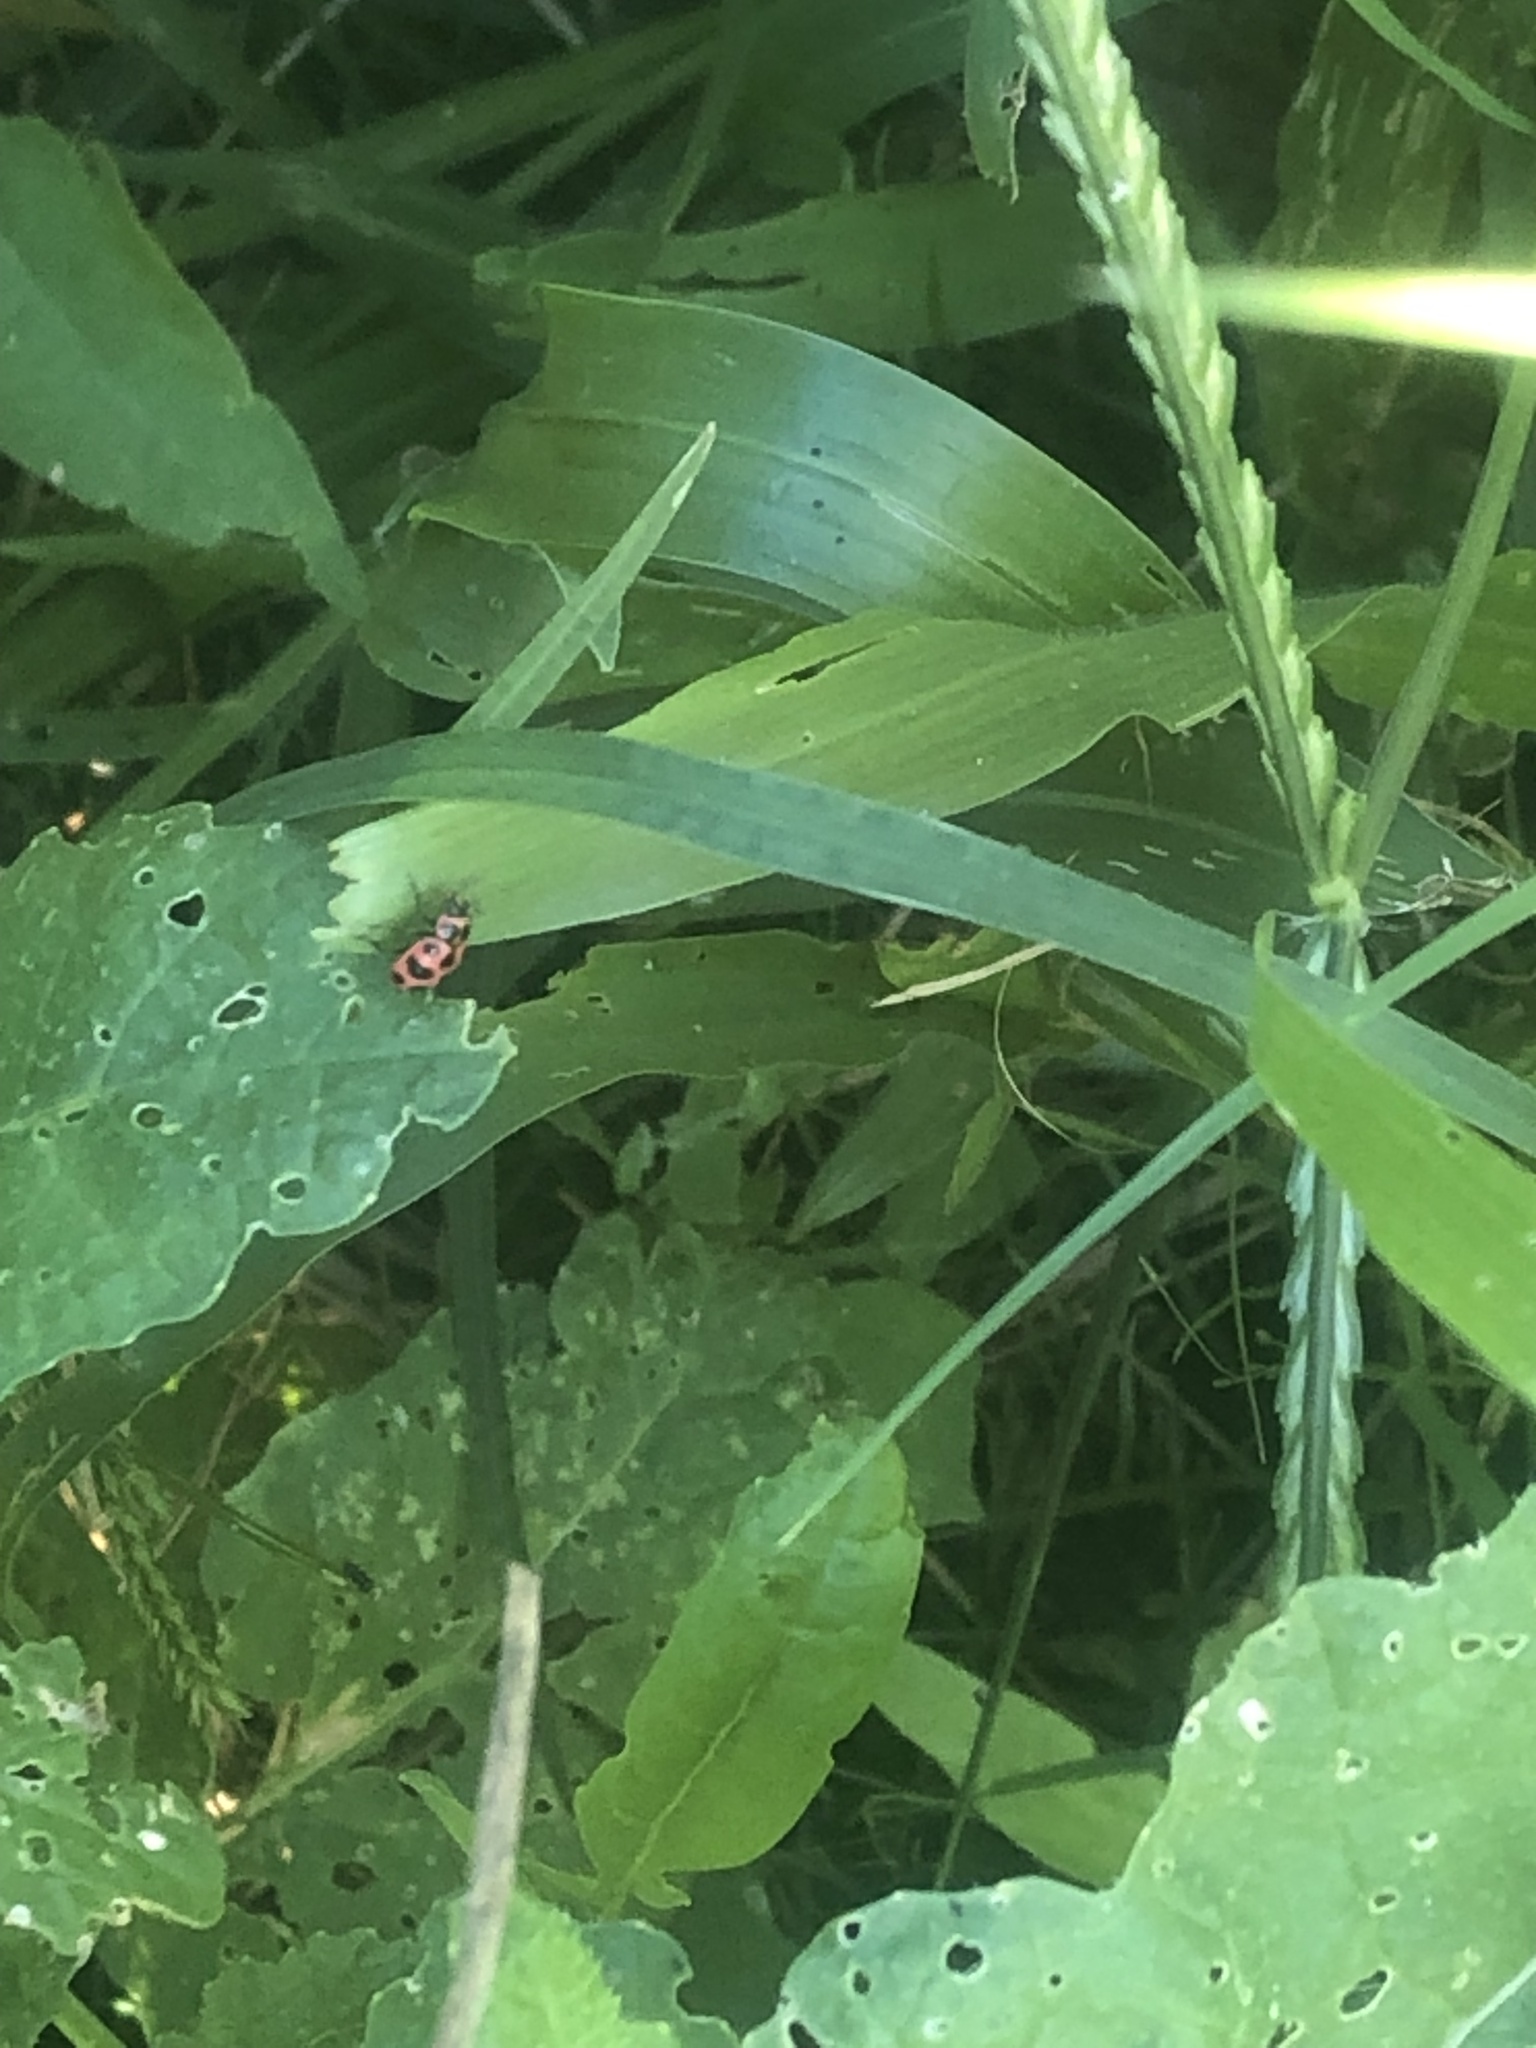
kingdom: Animalia
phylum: Arthropoda
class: Insecta
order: Coleoptera
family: Coccinellidae
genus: Coleomegilla
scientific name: Coleomegilla maculata
